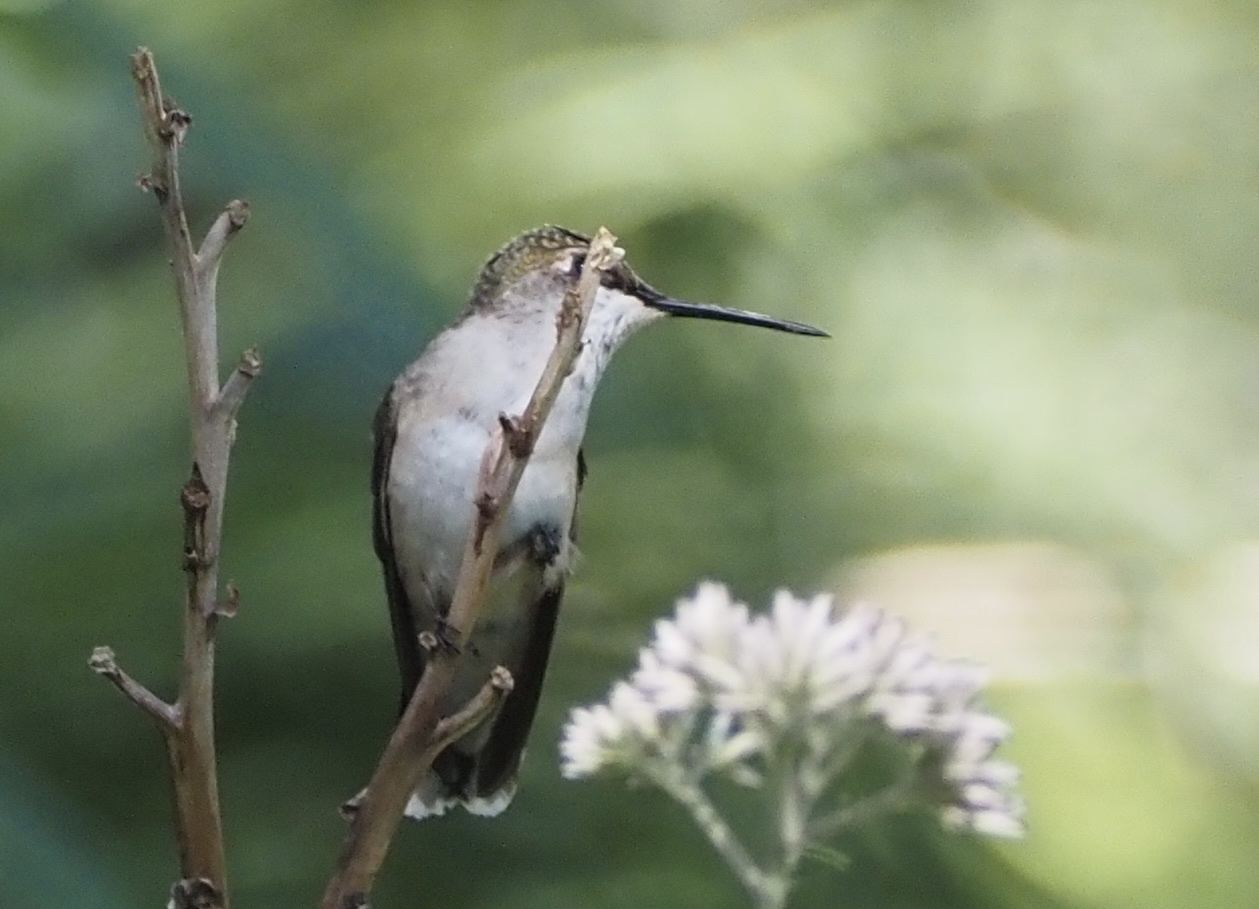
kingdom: Animalia
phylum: Chordata
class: Aves
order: Apodiformes
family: Trochilidae
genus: Archilochus
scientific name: Archilochus colubris
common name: Ruby-throated hummingbird
